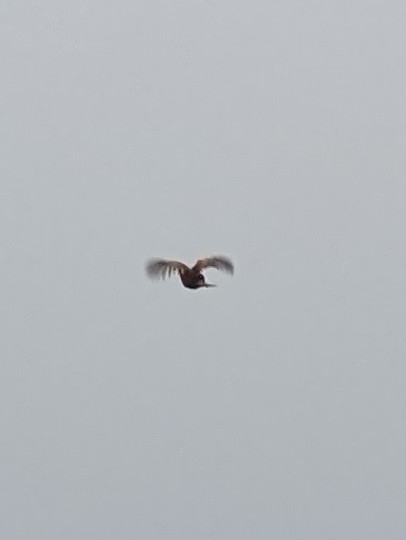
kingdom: Animalia
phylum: Chordata
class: Aves
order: Galliformes
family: Phasianidae
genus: Phasianus
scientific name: Phasianus colchicus
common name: Common pheasant
